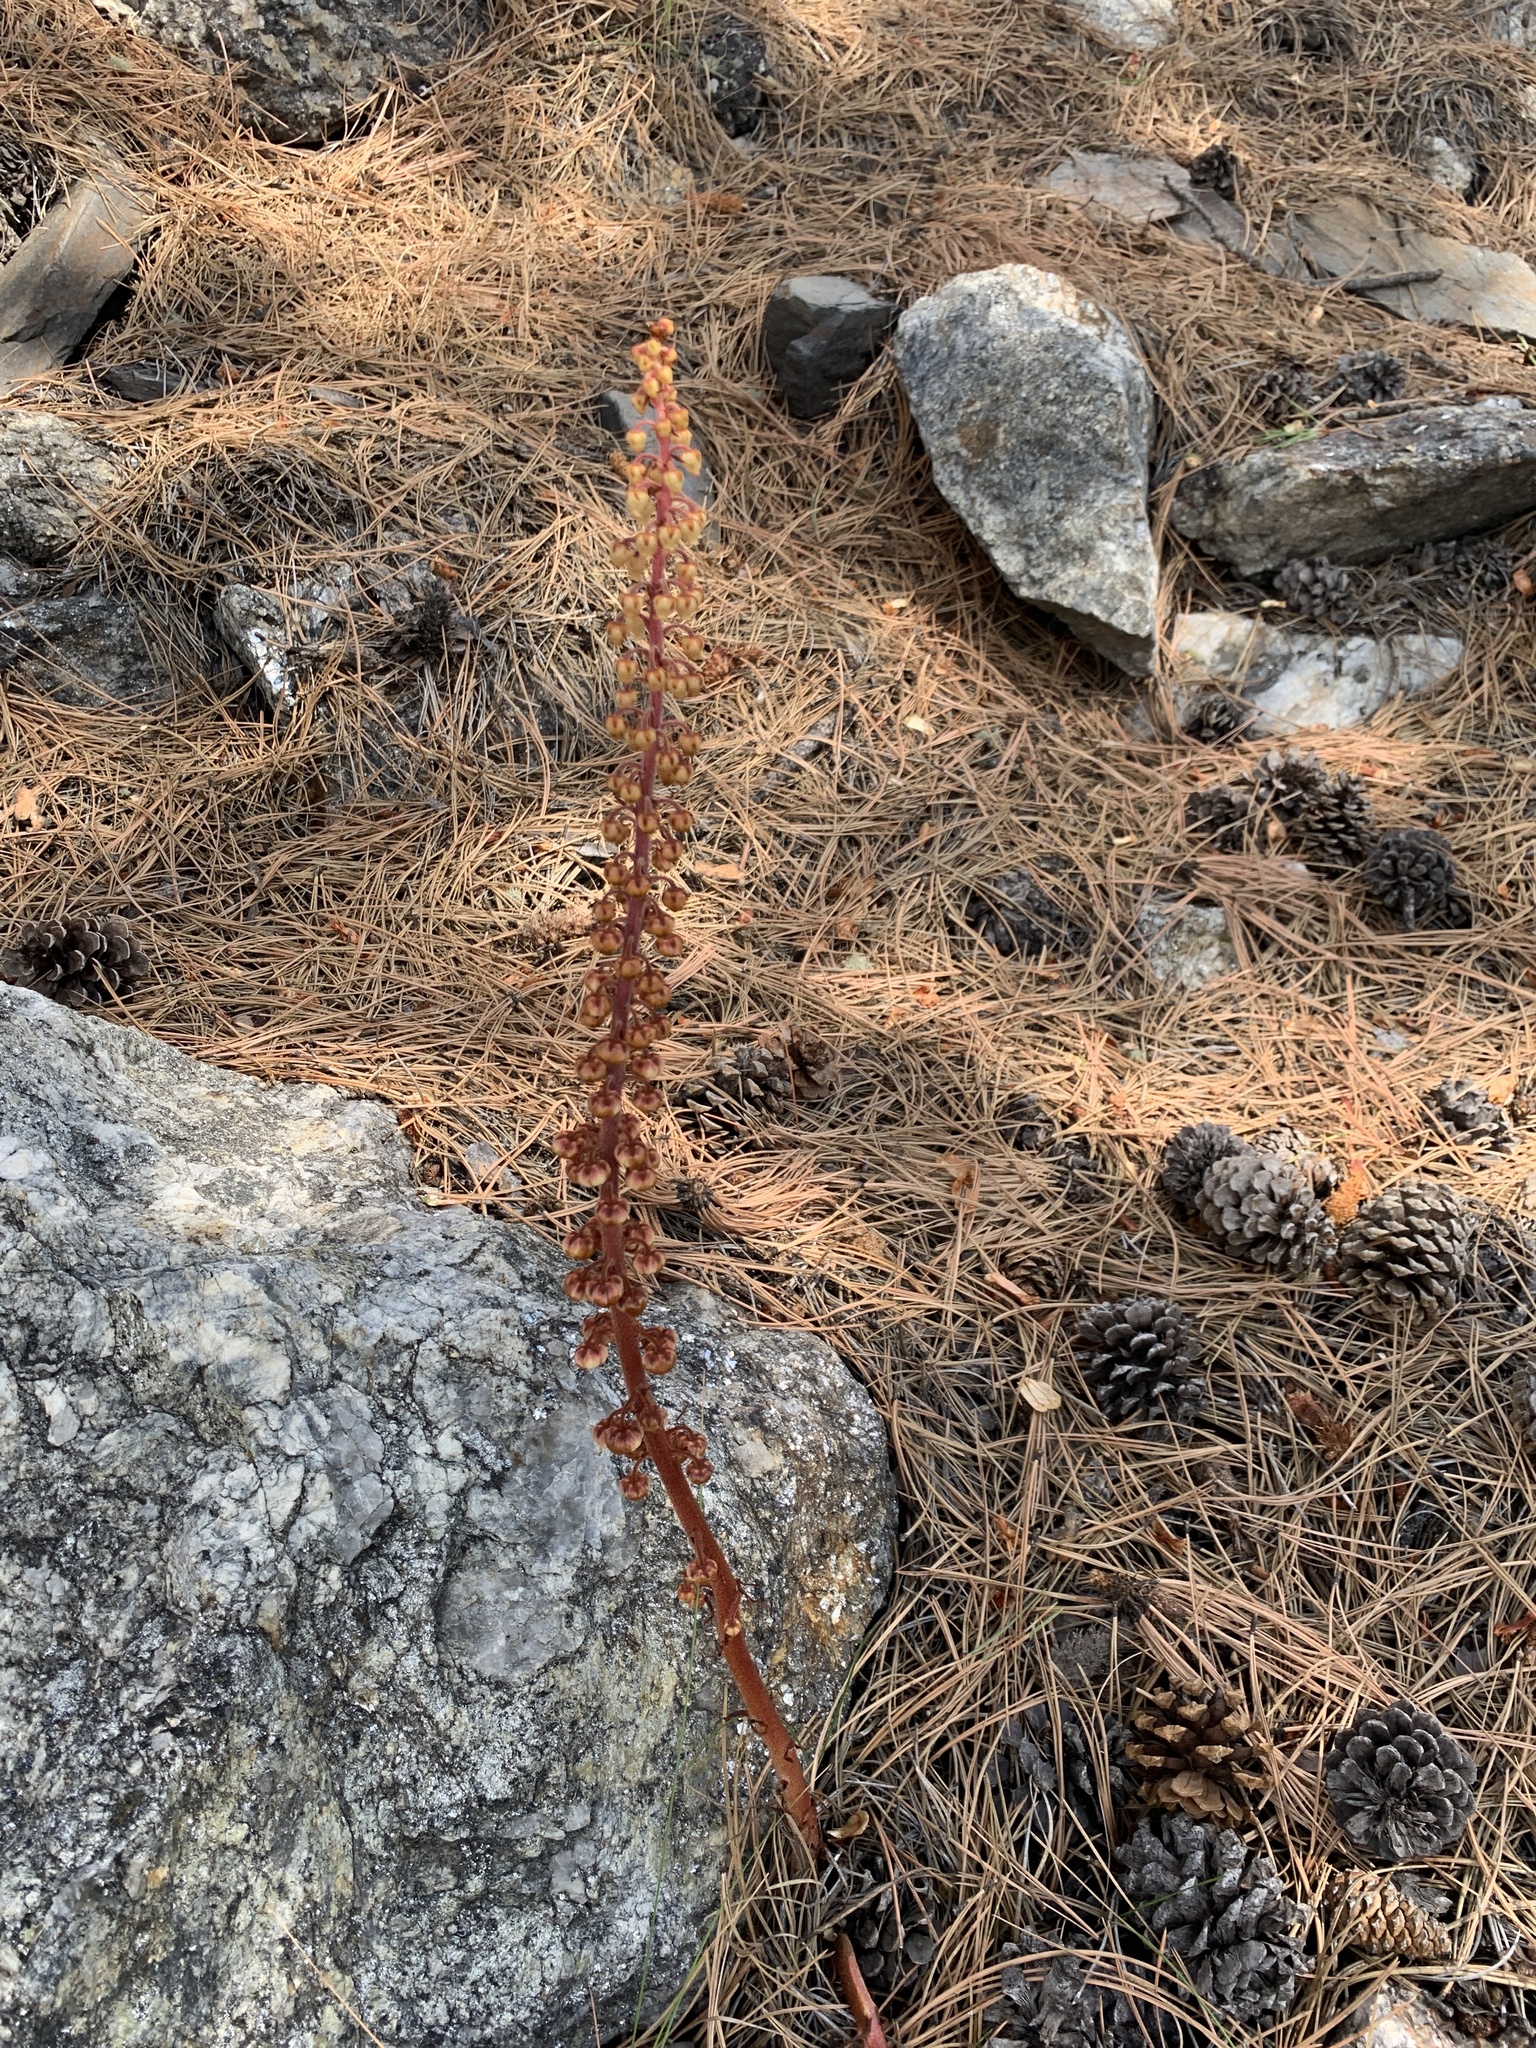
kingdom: Plantae
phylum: Tracheophyta
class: Magnoliopsida
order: Ericales
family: Ericaceae
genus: Pterospora
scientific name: Pterospora andromedea
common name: Giant bird's-nest
